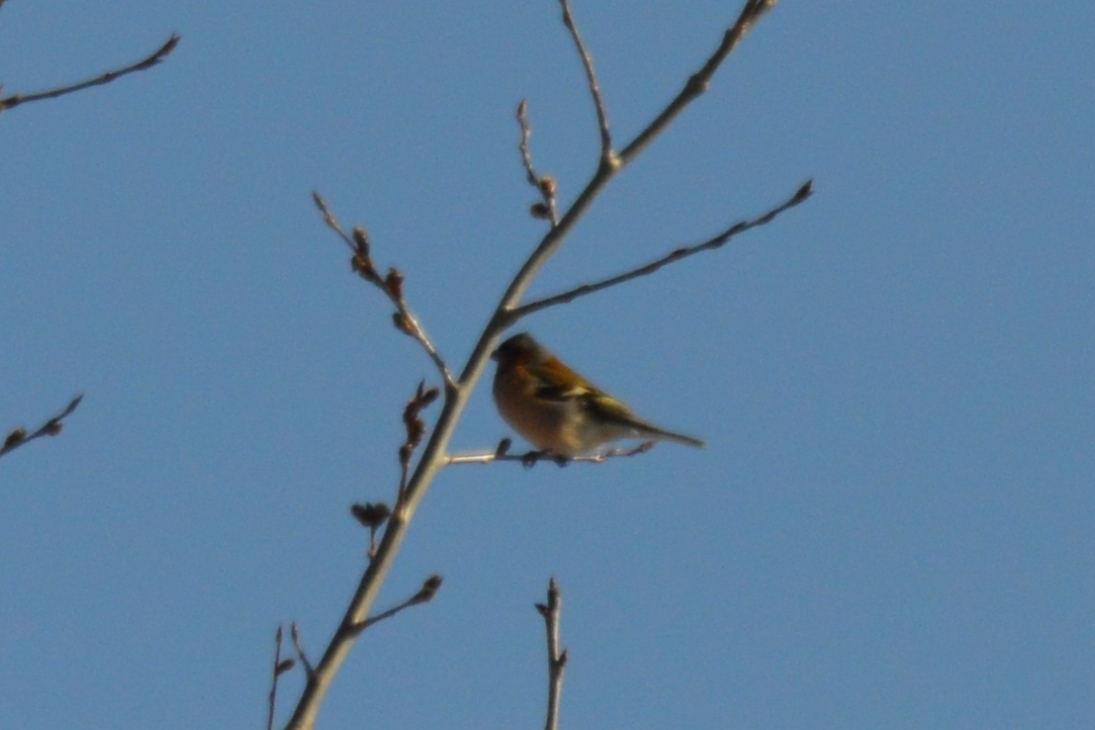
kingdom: Animalia
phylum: Chordata
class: Aves
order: Passeriformes
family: Fringillidae
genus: Fringilla
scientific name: Fringilla coelebs
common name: Common chaffinch
